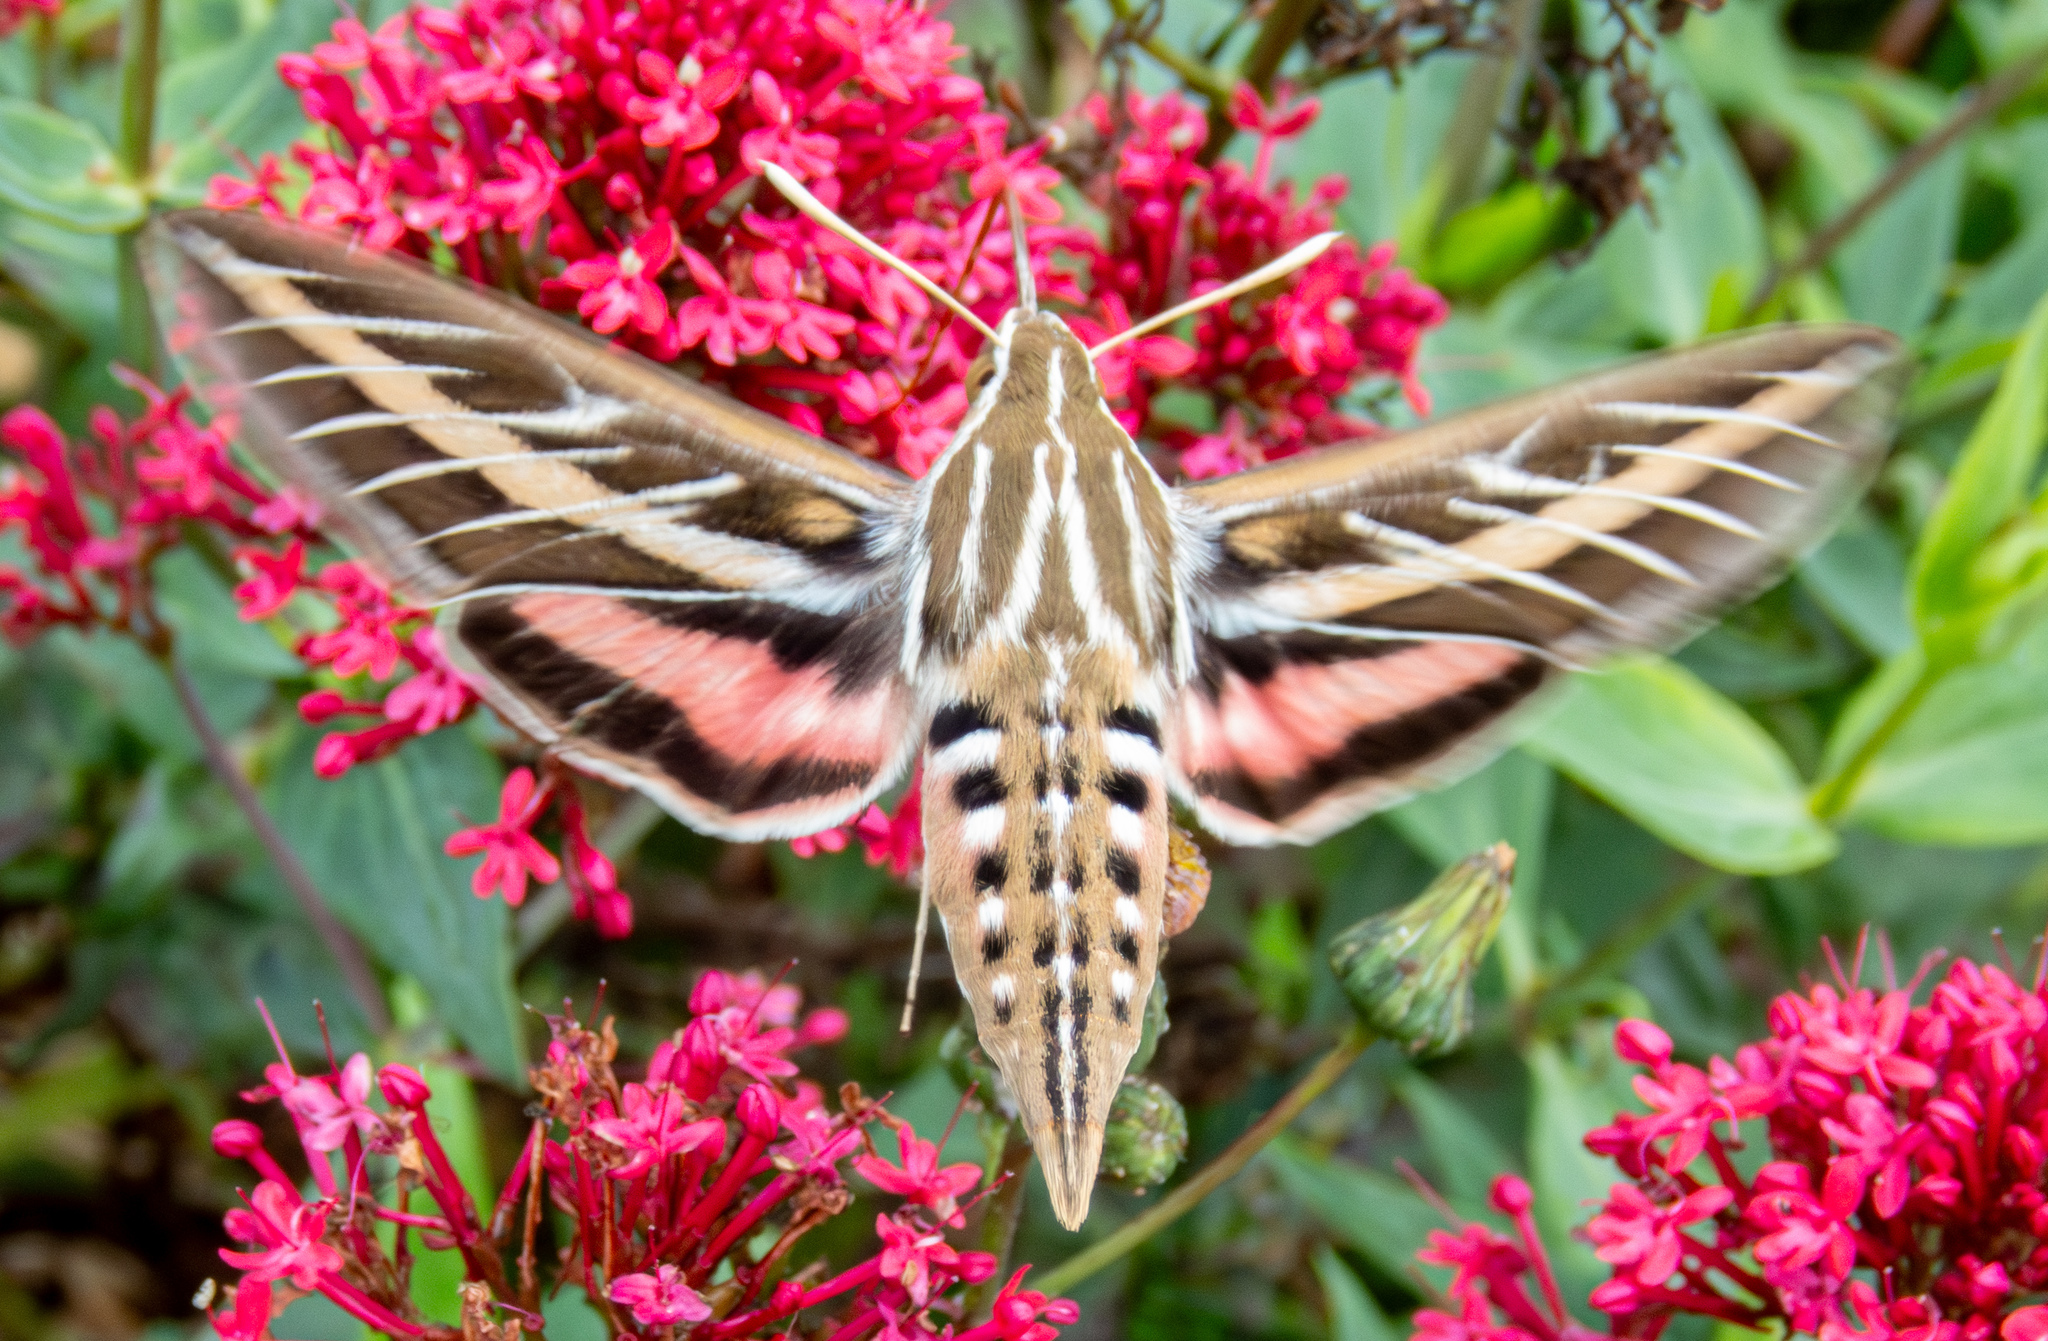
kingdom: Animalia
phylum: Arthropoda
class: Insecta
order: Lepidoptera
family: Sphingidae
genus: Hyles
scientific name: Hyles lineata
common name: White-lined sphinx
